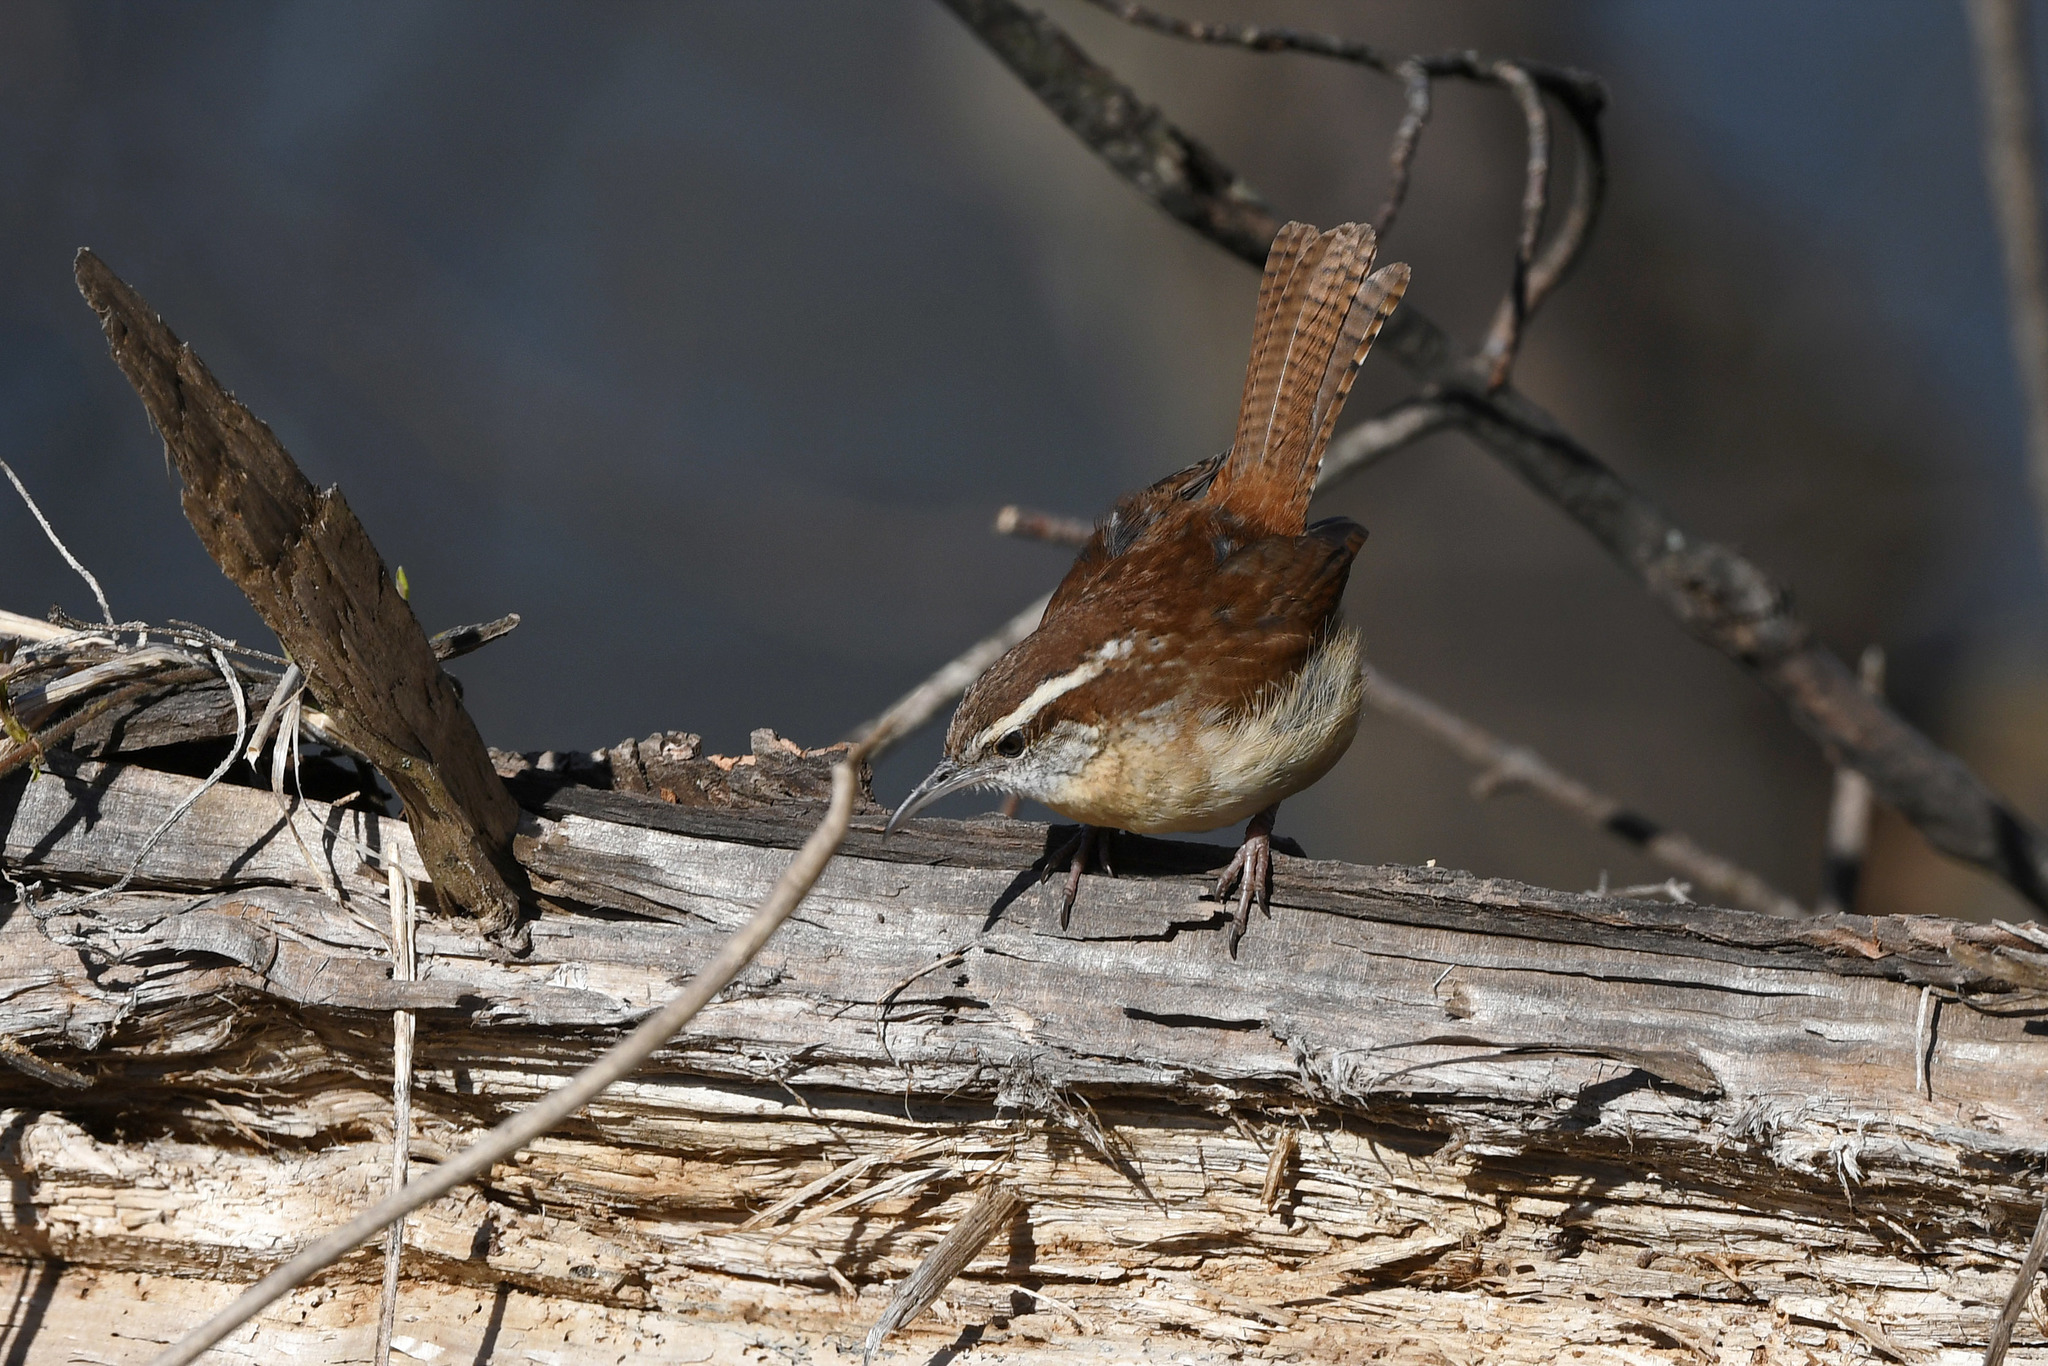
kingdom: Animalia
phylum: Chordata
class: Aves
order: Passeriformes
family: Troglodytidae
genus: Thryothorus
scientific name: Thryothorus ludovicianus
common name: Carolina wren
